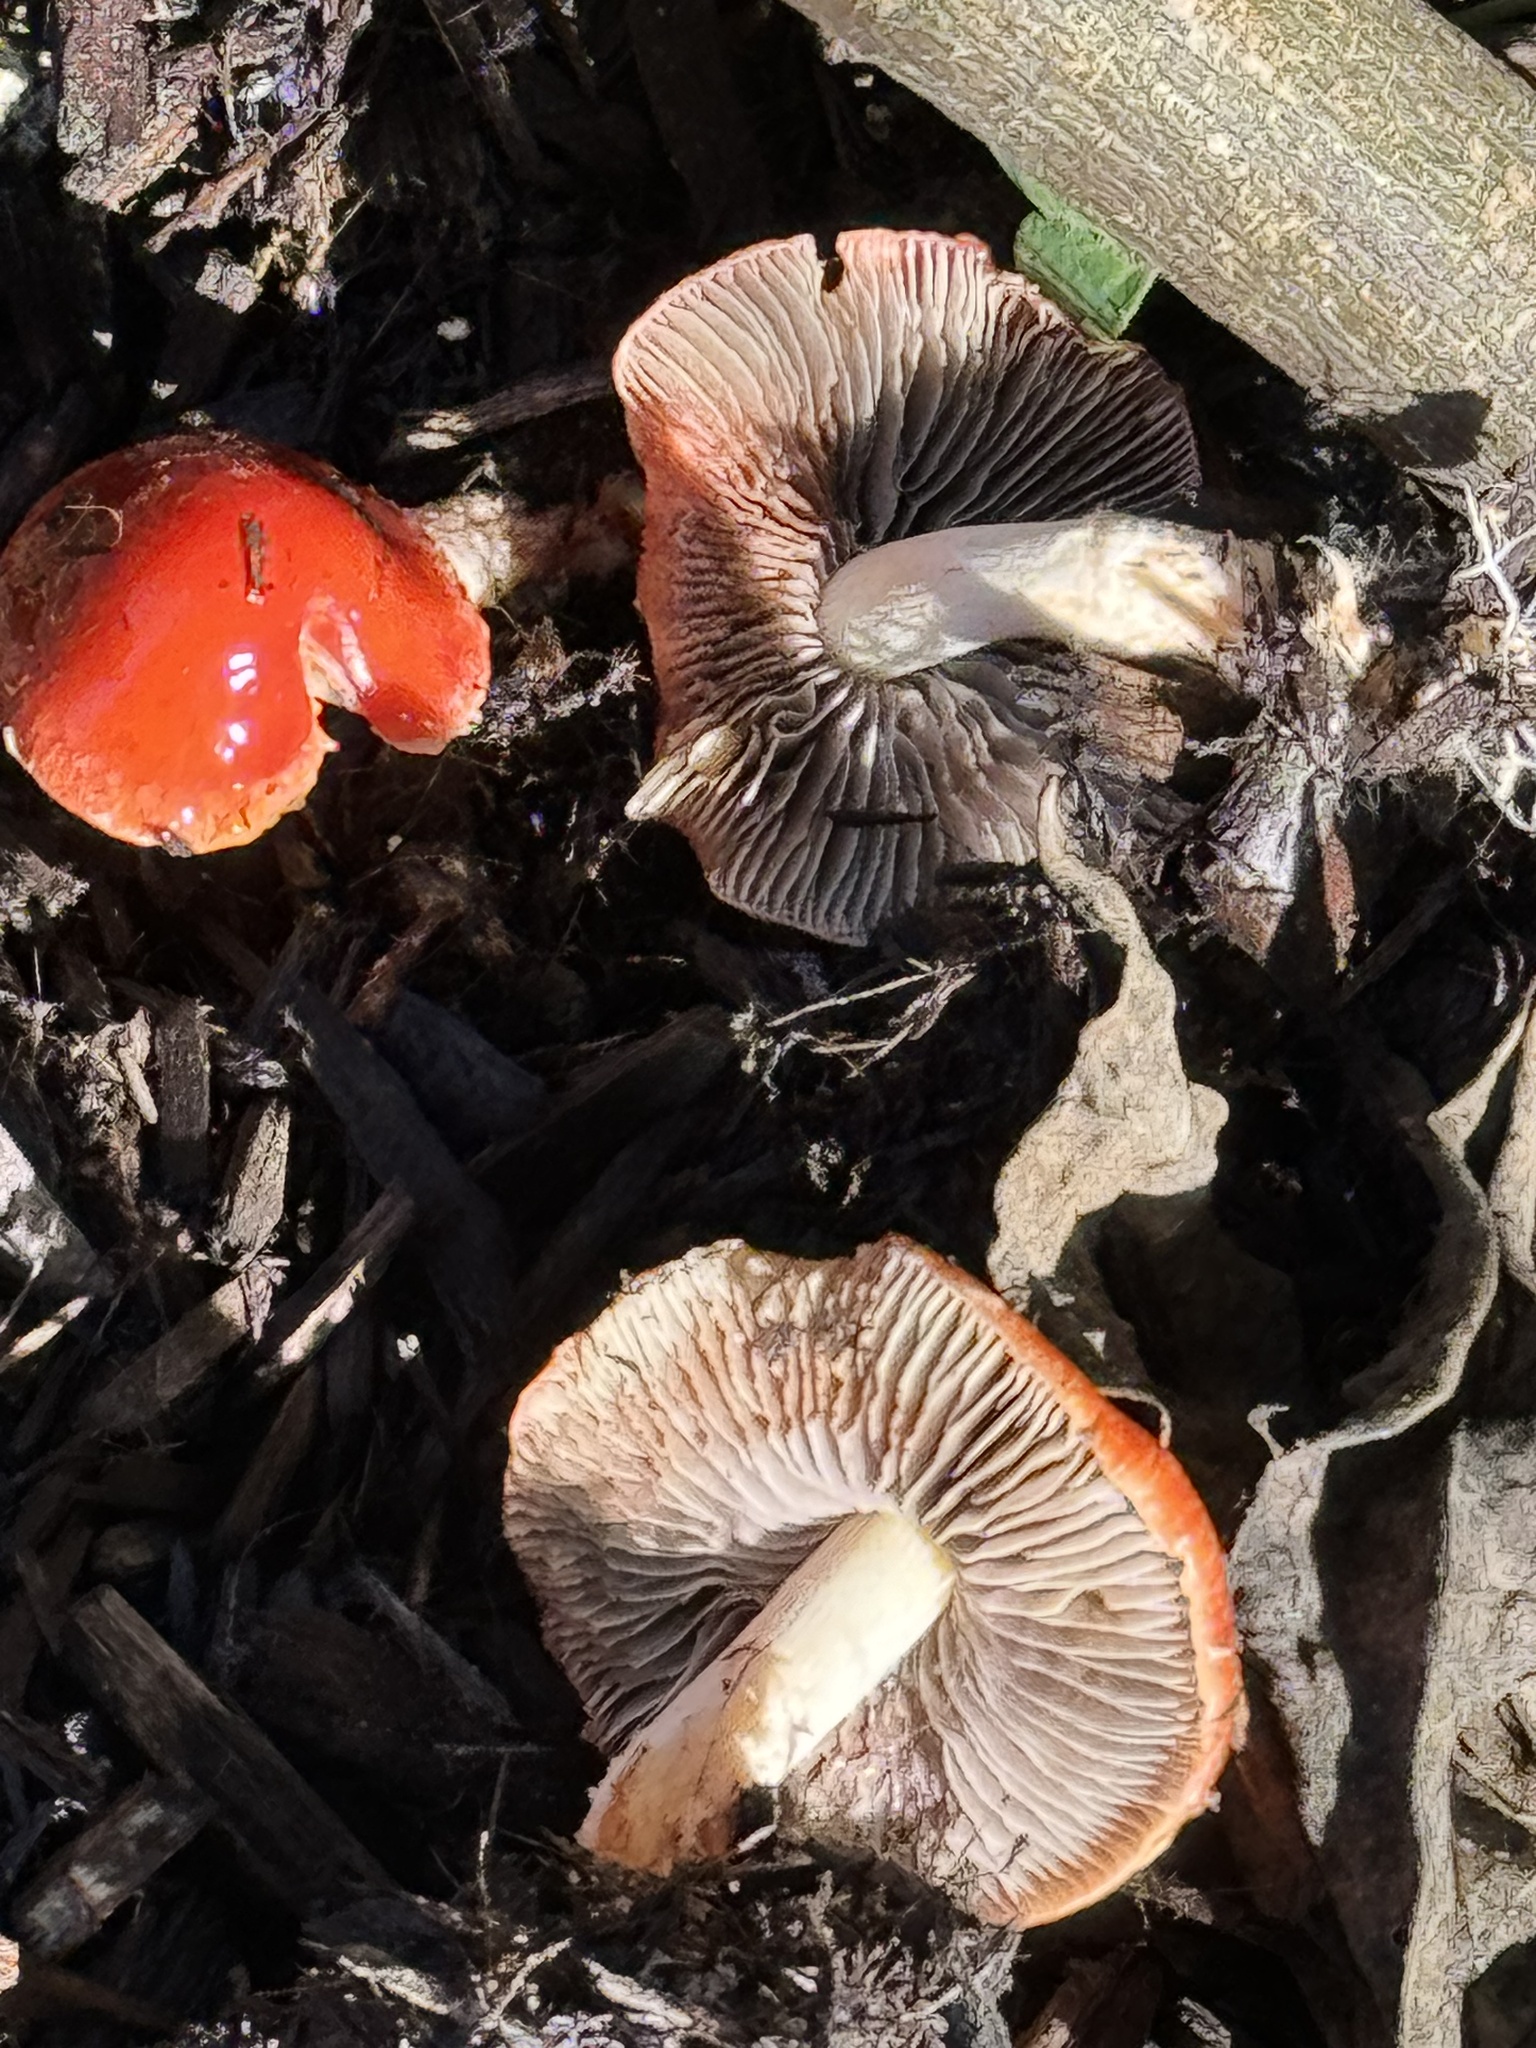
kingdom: Fungi
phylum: Basidiomycota
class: Agaricomycetes
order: Agaricales
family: Strophariaceae
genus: Leratiomyces
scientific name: Leratiomyces ceres
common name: Redlead roundhead
